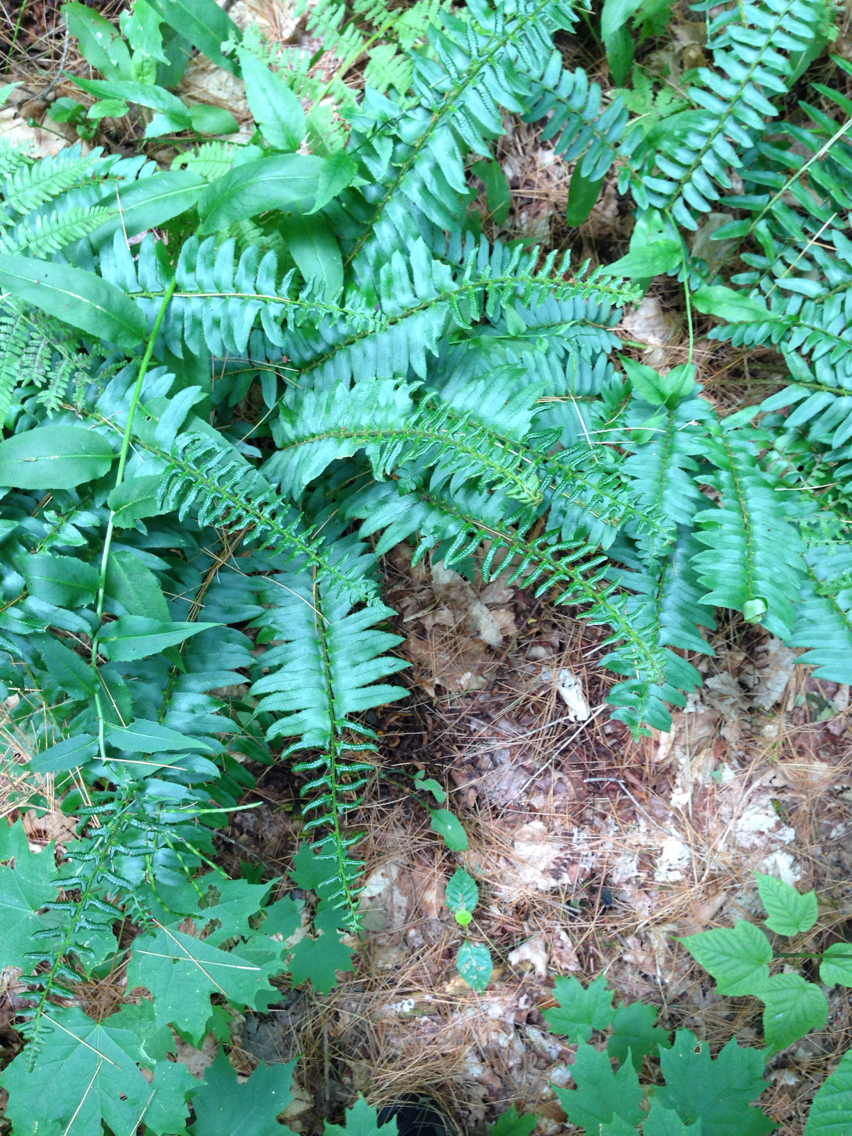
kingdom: Plantae
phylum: Tracheophyta
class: Polypodiopsida
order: Polypodiales
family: Dryopteridaceae
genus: Polystichum
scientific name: Polystichum acrostichoides
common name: Christmas fern
